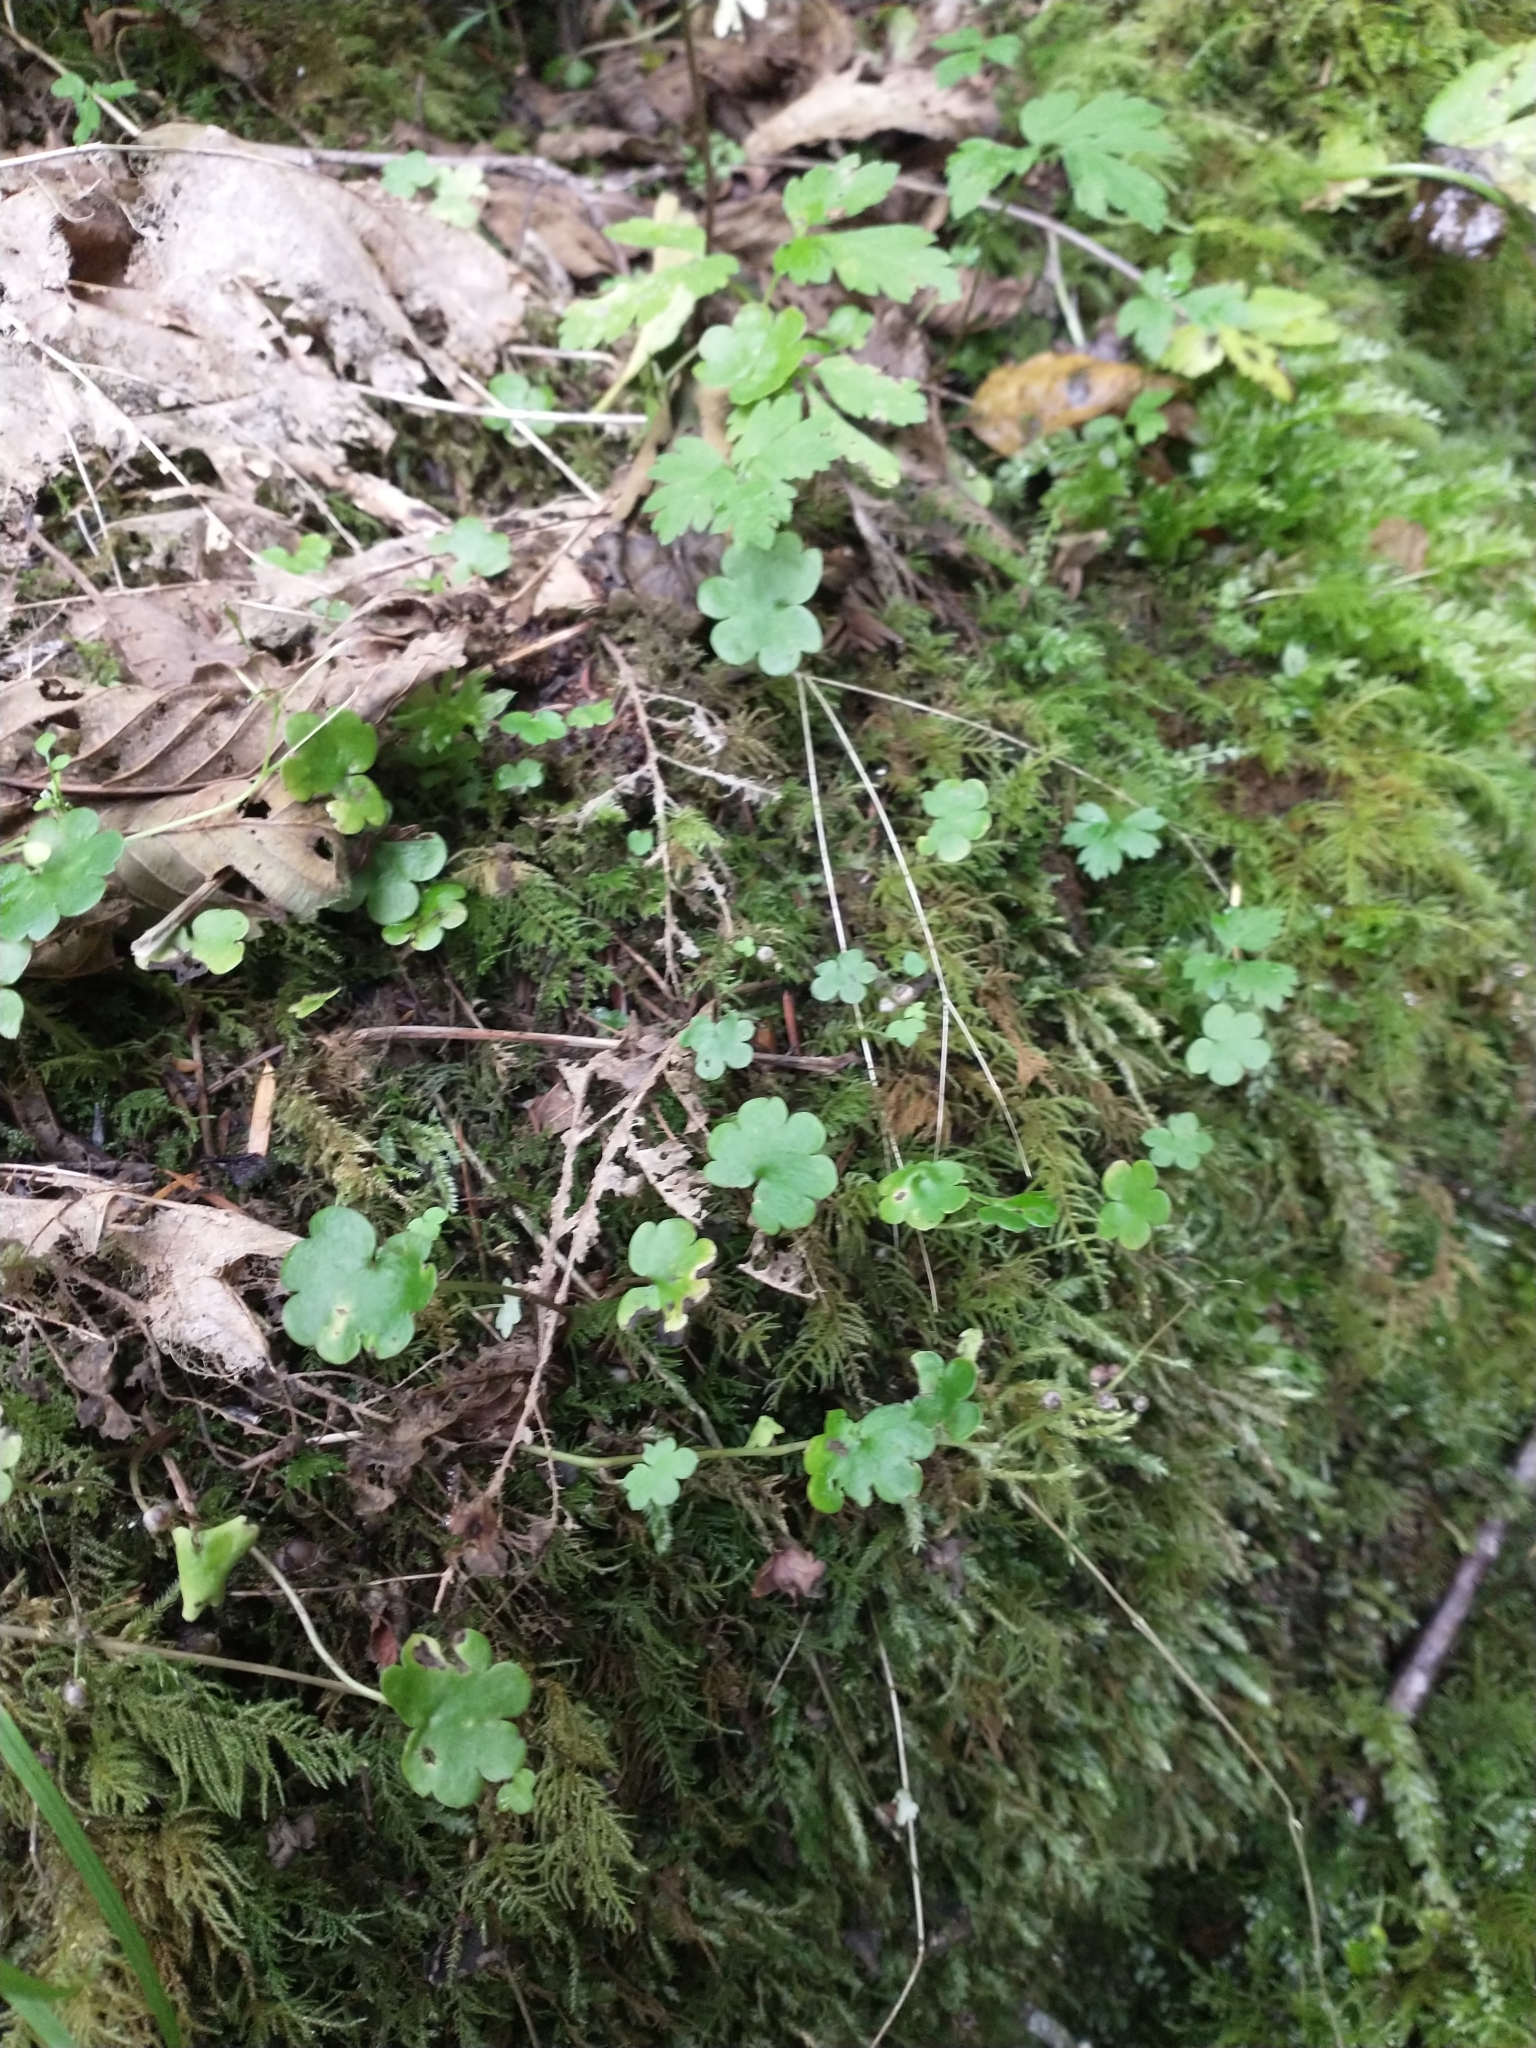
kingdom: Plantae
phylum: Tracheophyta
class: Magnoliopsida
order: Boraginales
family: Hydrophyllaceae
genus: Romanzoffia
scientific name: Romanzoffia californica
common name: California mistmaiden
